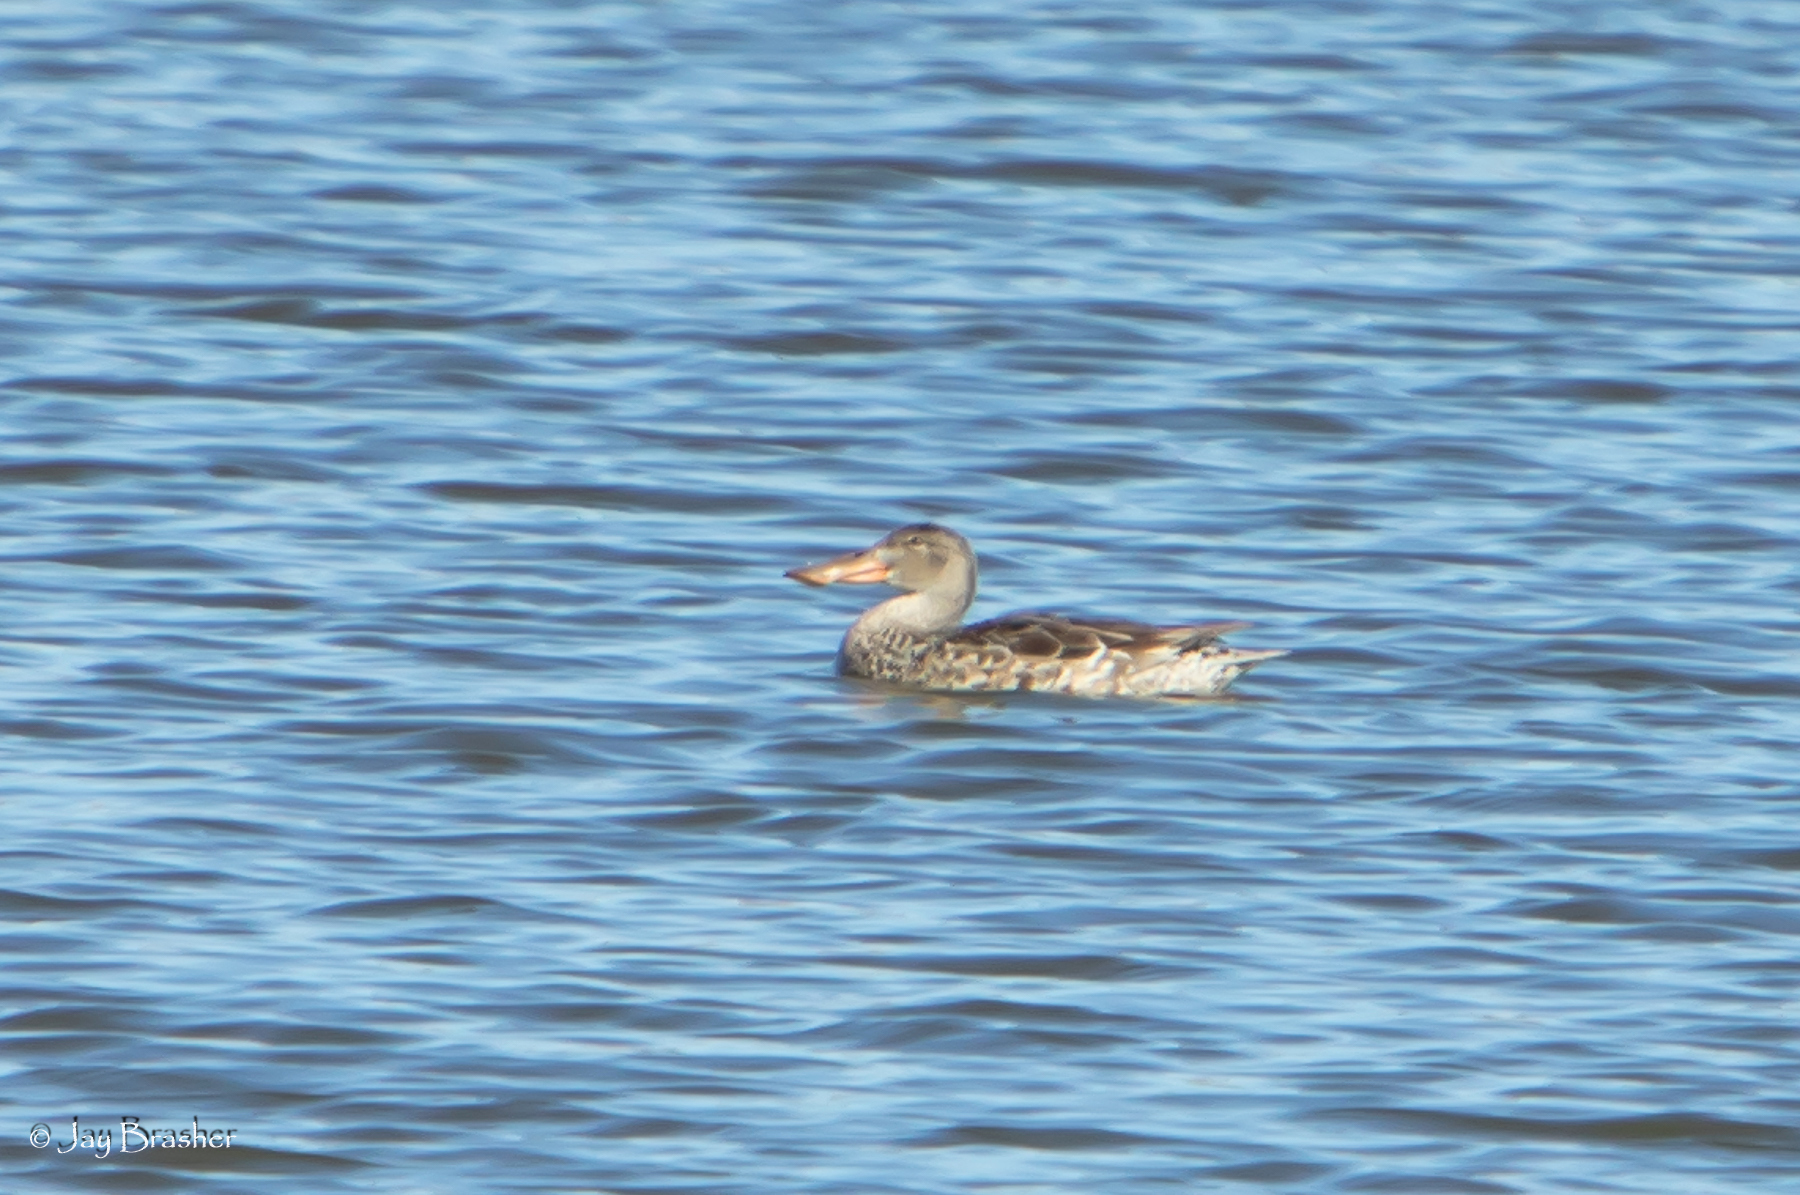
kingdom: Animalia
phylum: Chordata
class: Aves
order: Anseriformes
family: Anatidae
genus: Spatula
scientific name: Spatula clypeata
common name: Northern shoveler
